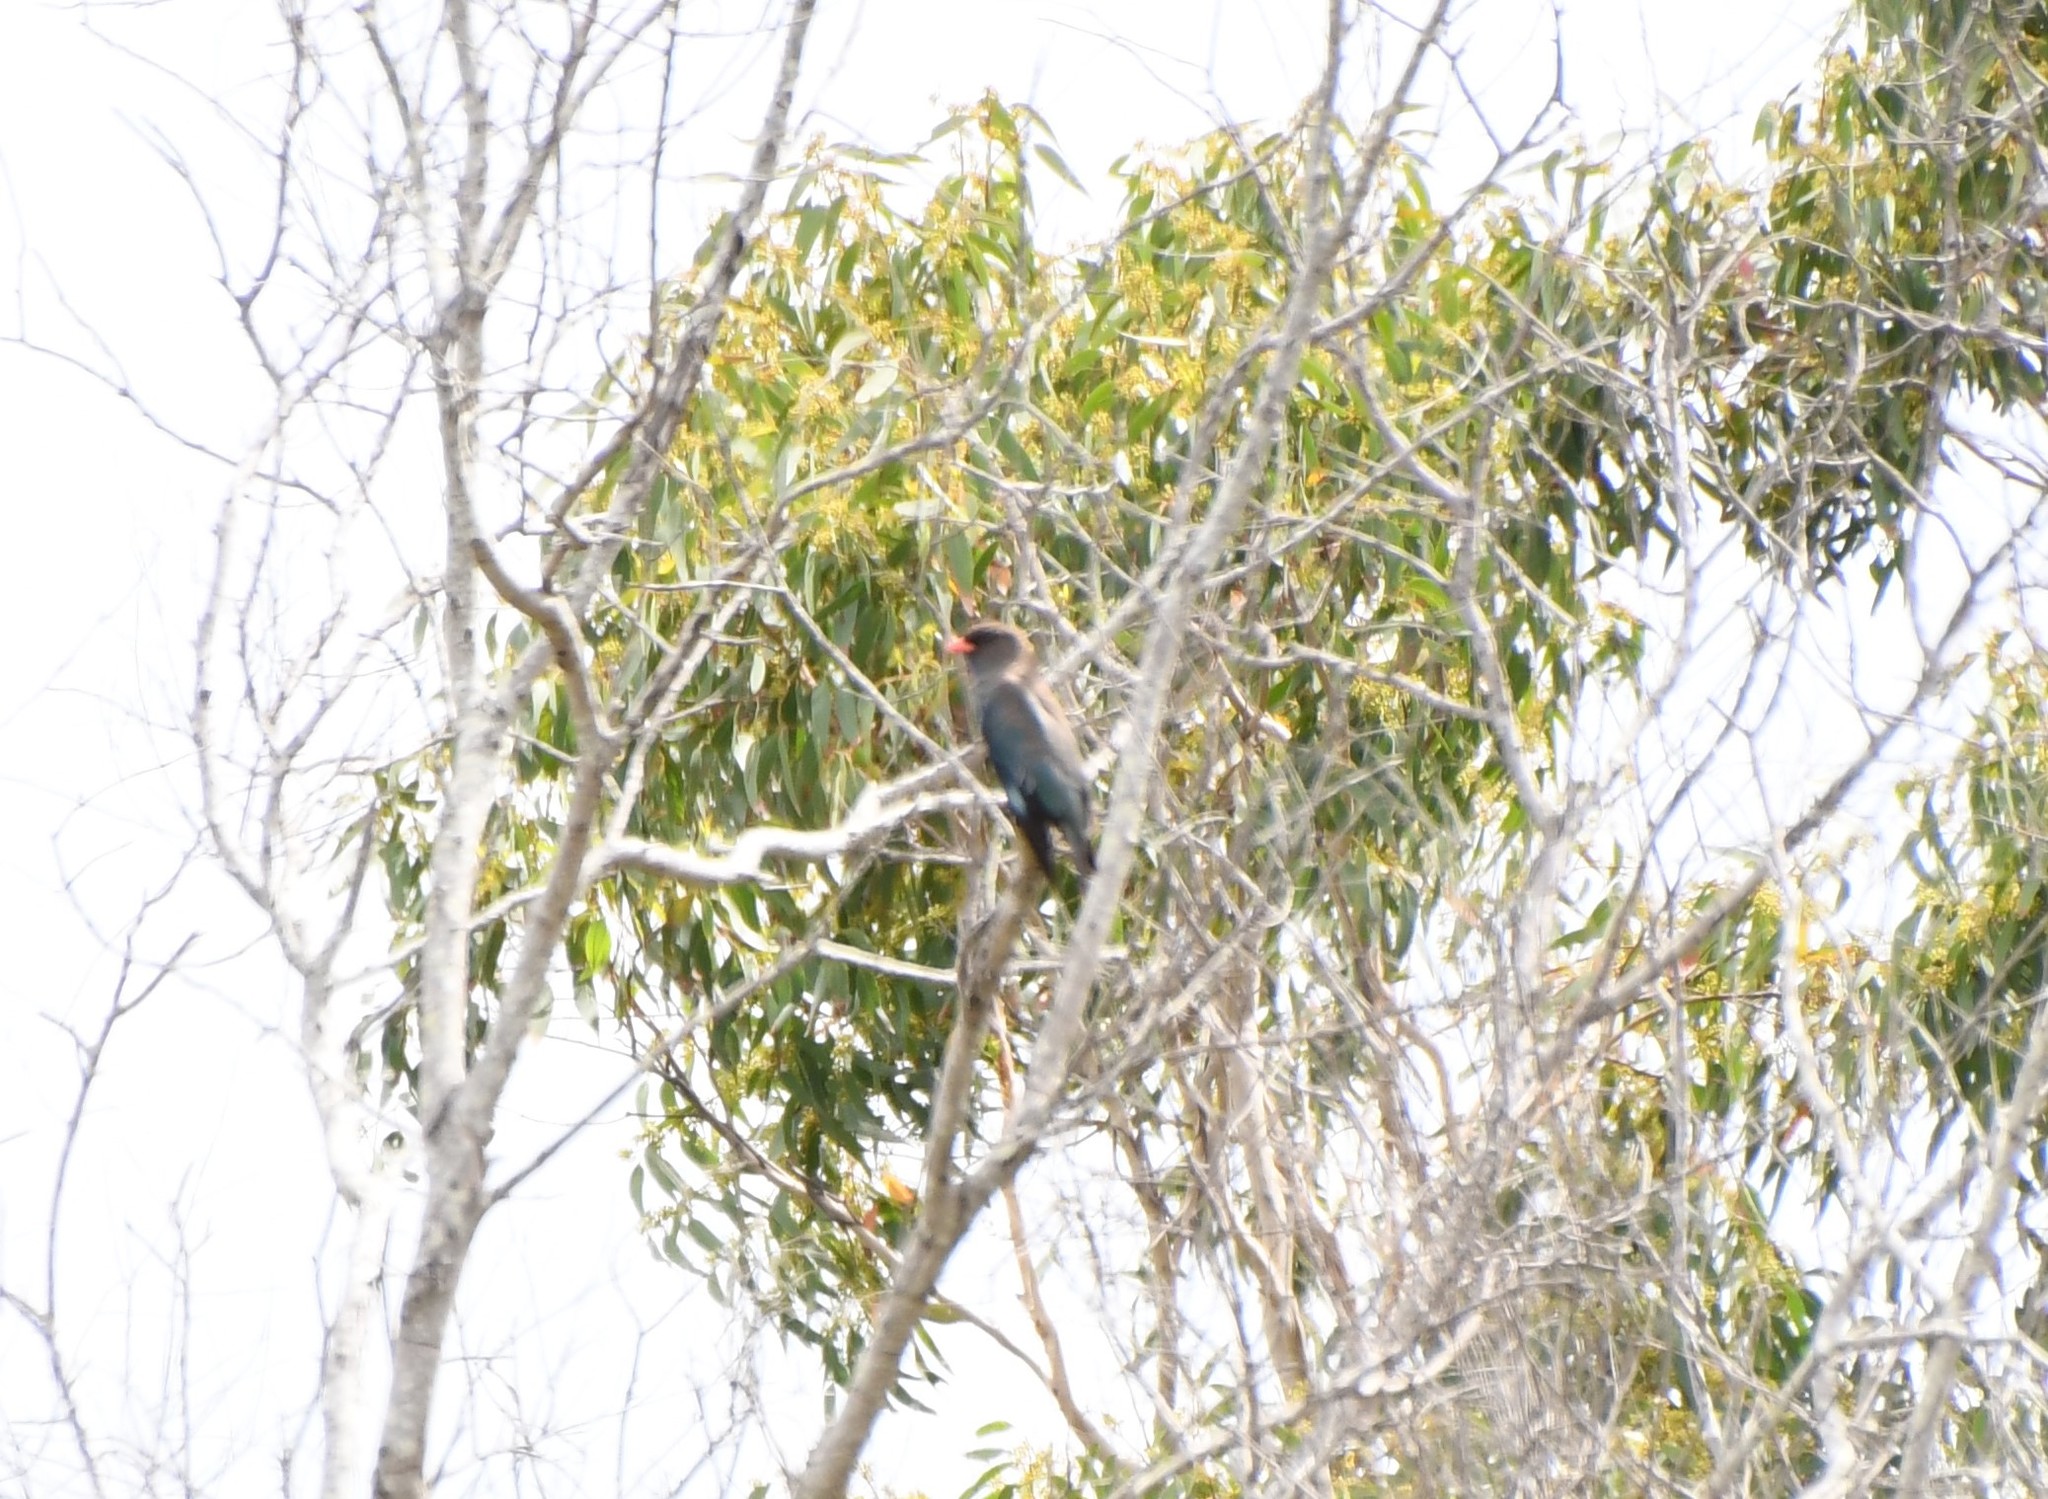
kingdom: Animalia
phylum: Chordata
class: Aves
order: Coraciiformes
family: Coraciidae
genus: Eurystomus
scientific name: Eurystomus orientalis
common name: Oriental dollarbird
